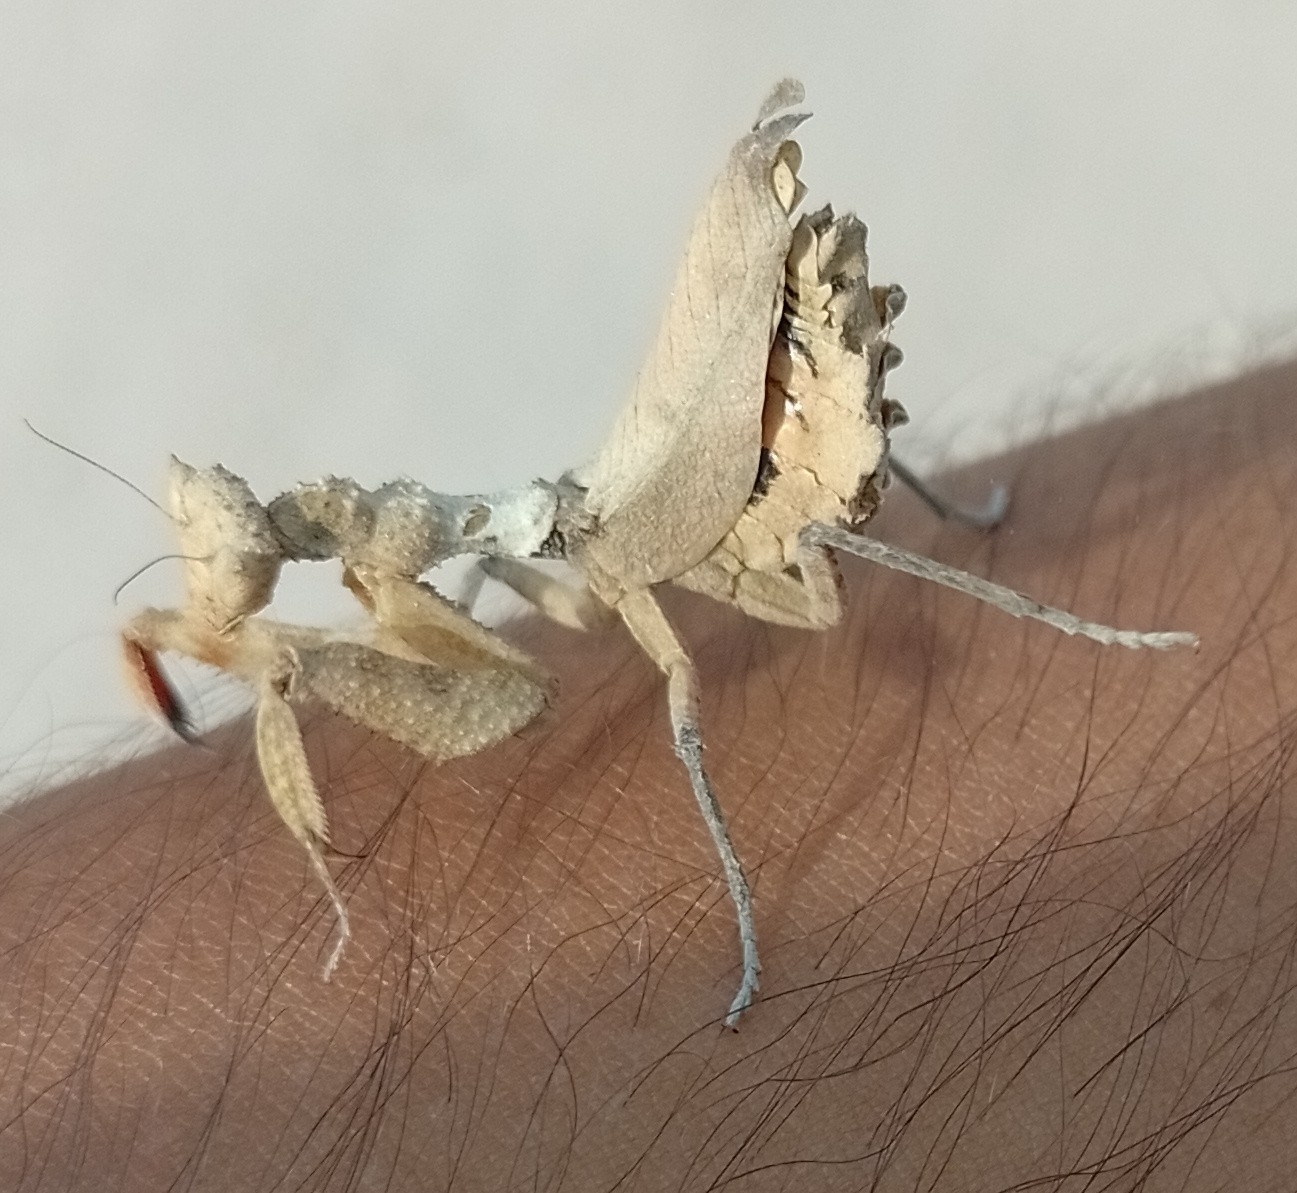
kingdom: Animalia
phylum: Arthropoda
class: Insecta
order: Mantodea
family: Acanthopidae
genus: Decimiana
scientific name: Decimiana rehni
